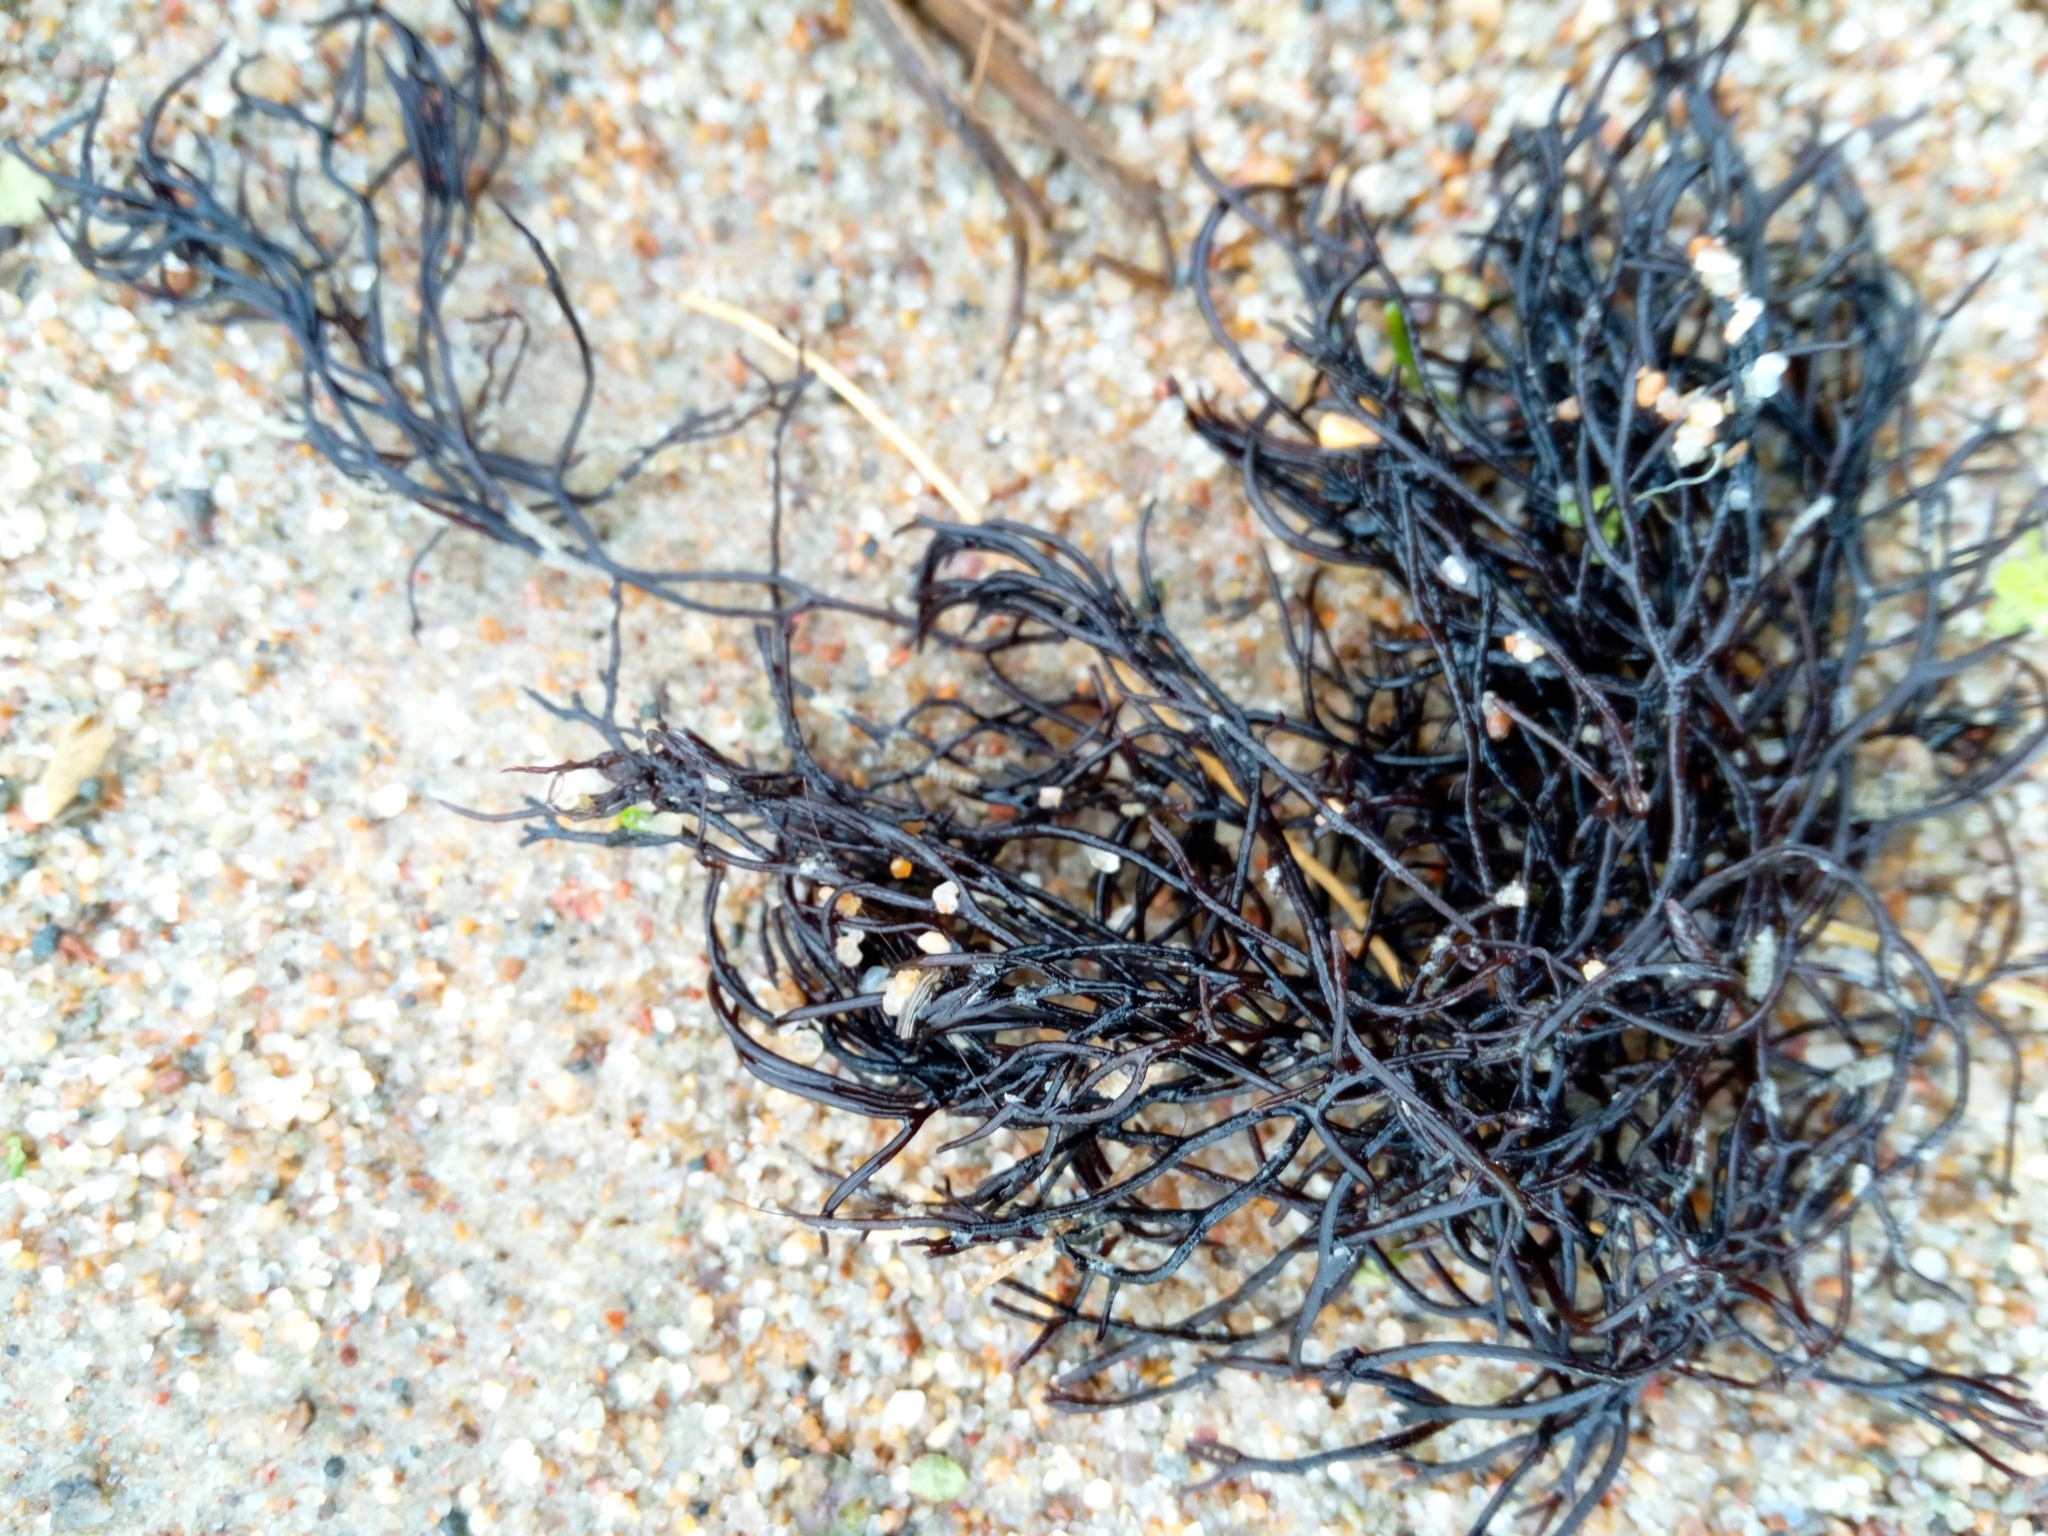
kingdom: Plantae
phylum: Rhodophyta
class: Florideophyceae
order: Gigartinales
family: Furcellariaceae
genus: Furcellaria
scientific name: Furcellaria lumbricalis
